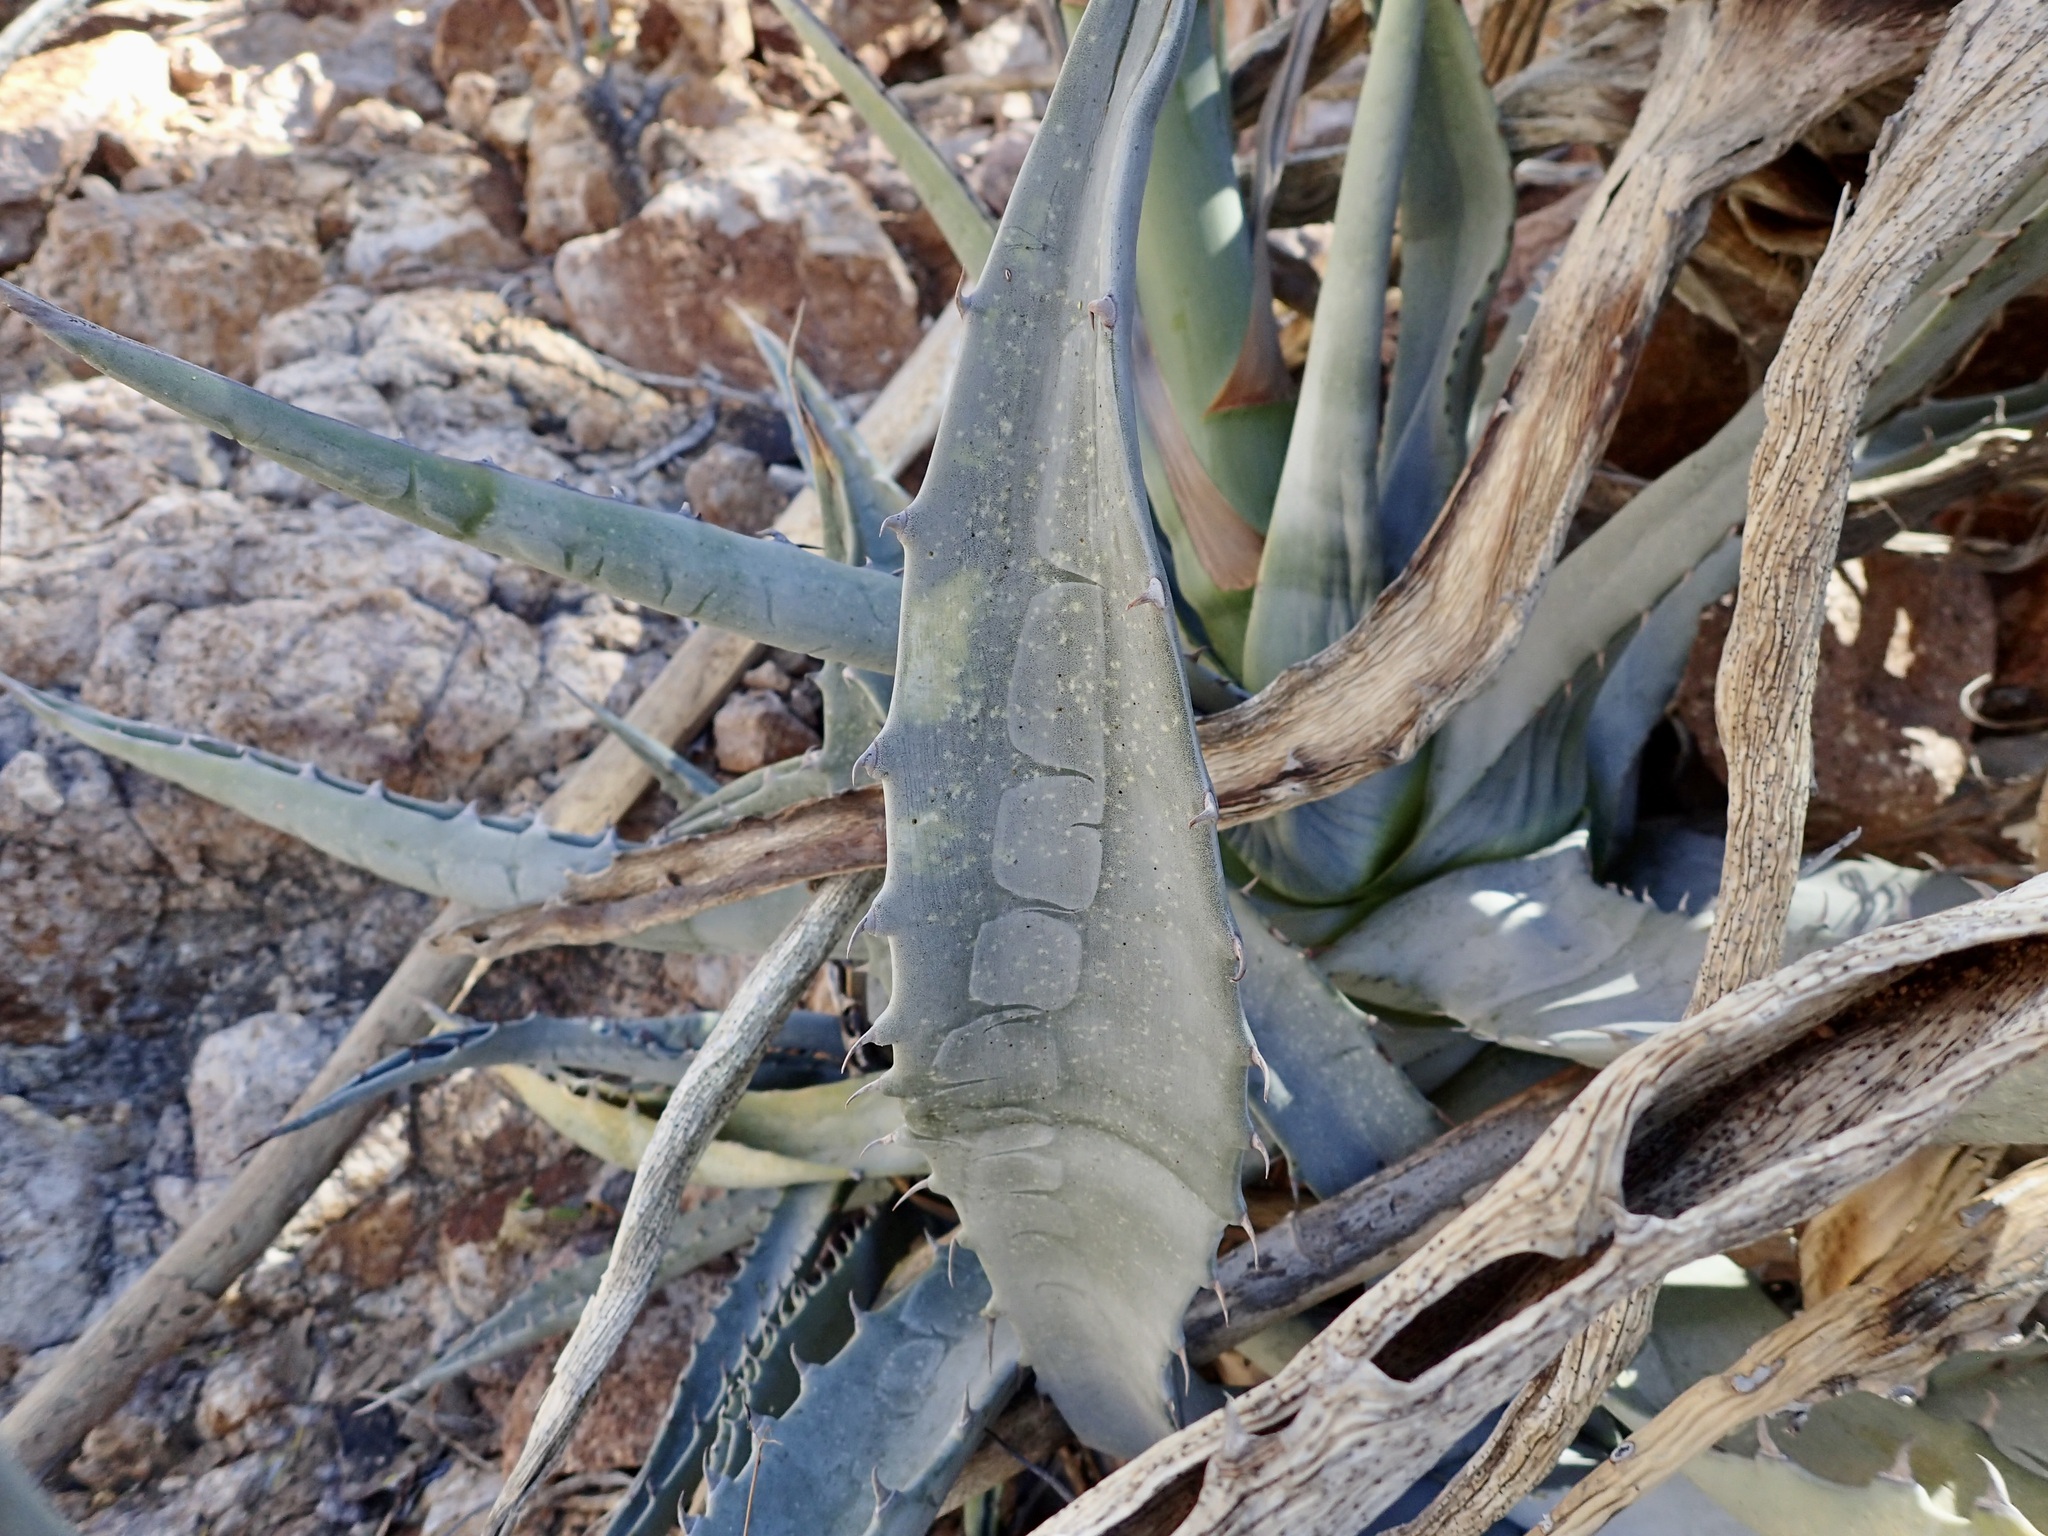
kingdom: Plantae
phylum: Tracheophyta
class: Liliopsida
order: Asparagales
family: Asparagaceae
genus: Agave
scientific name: Agave sobria
